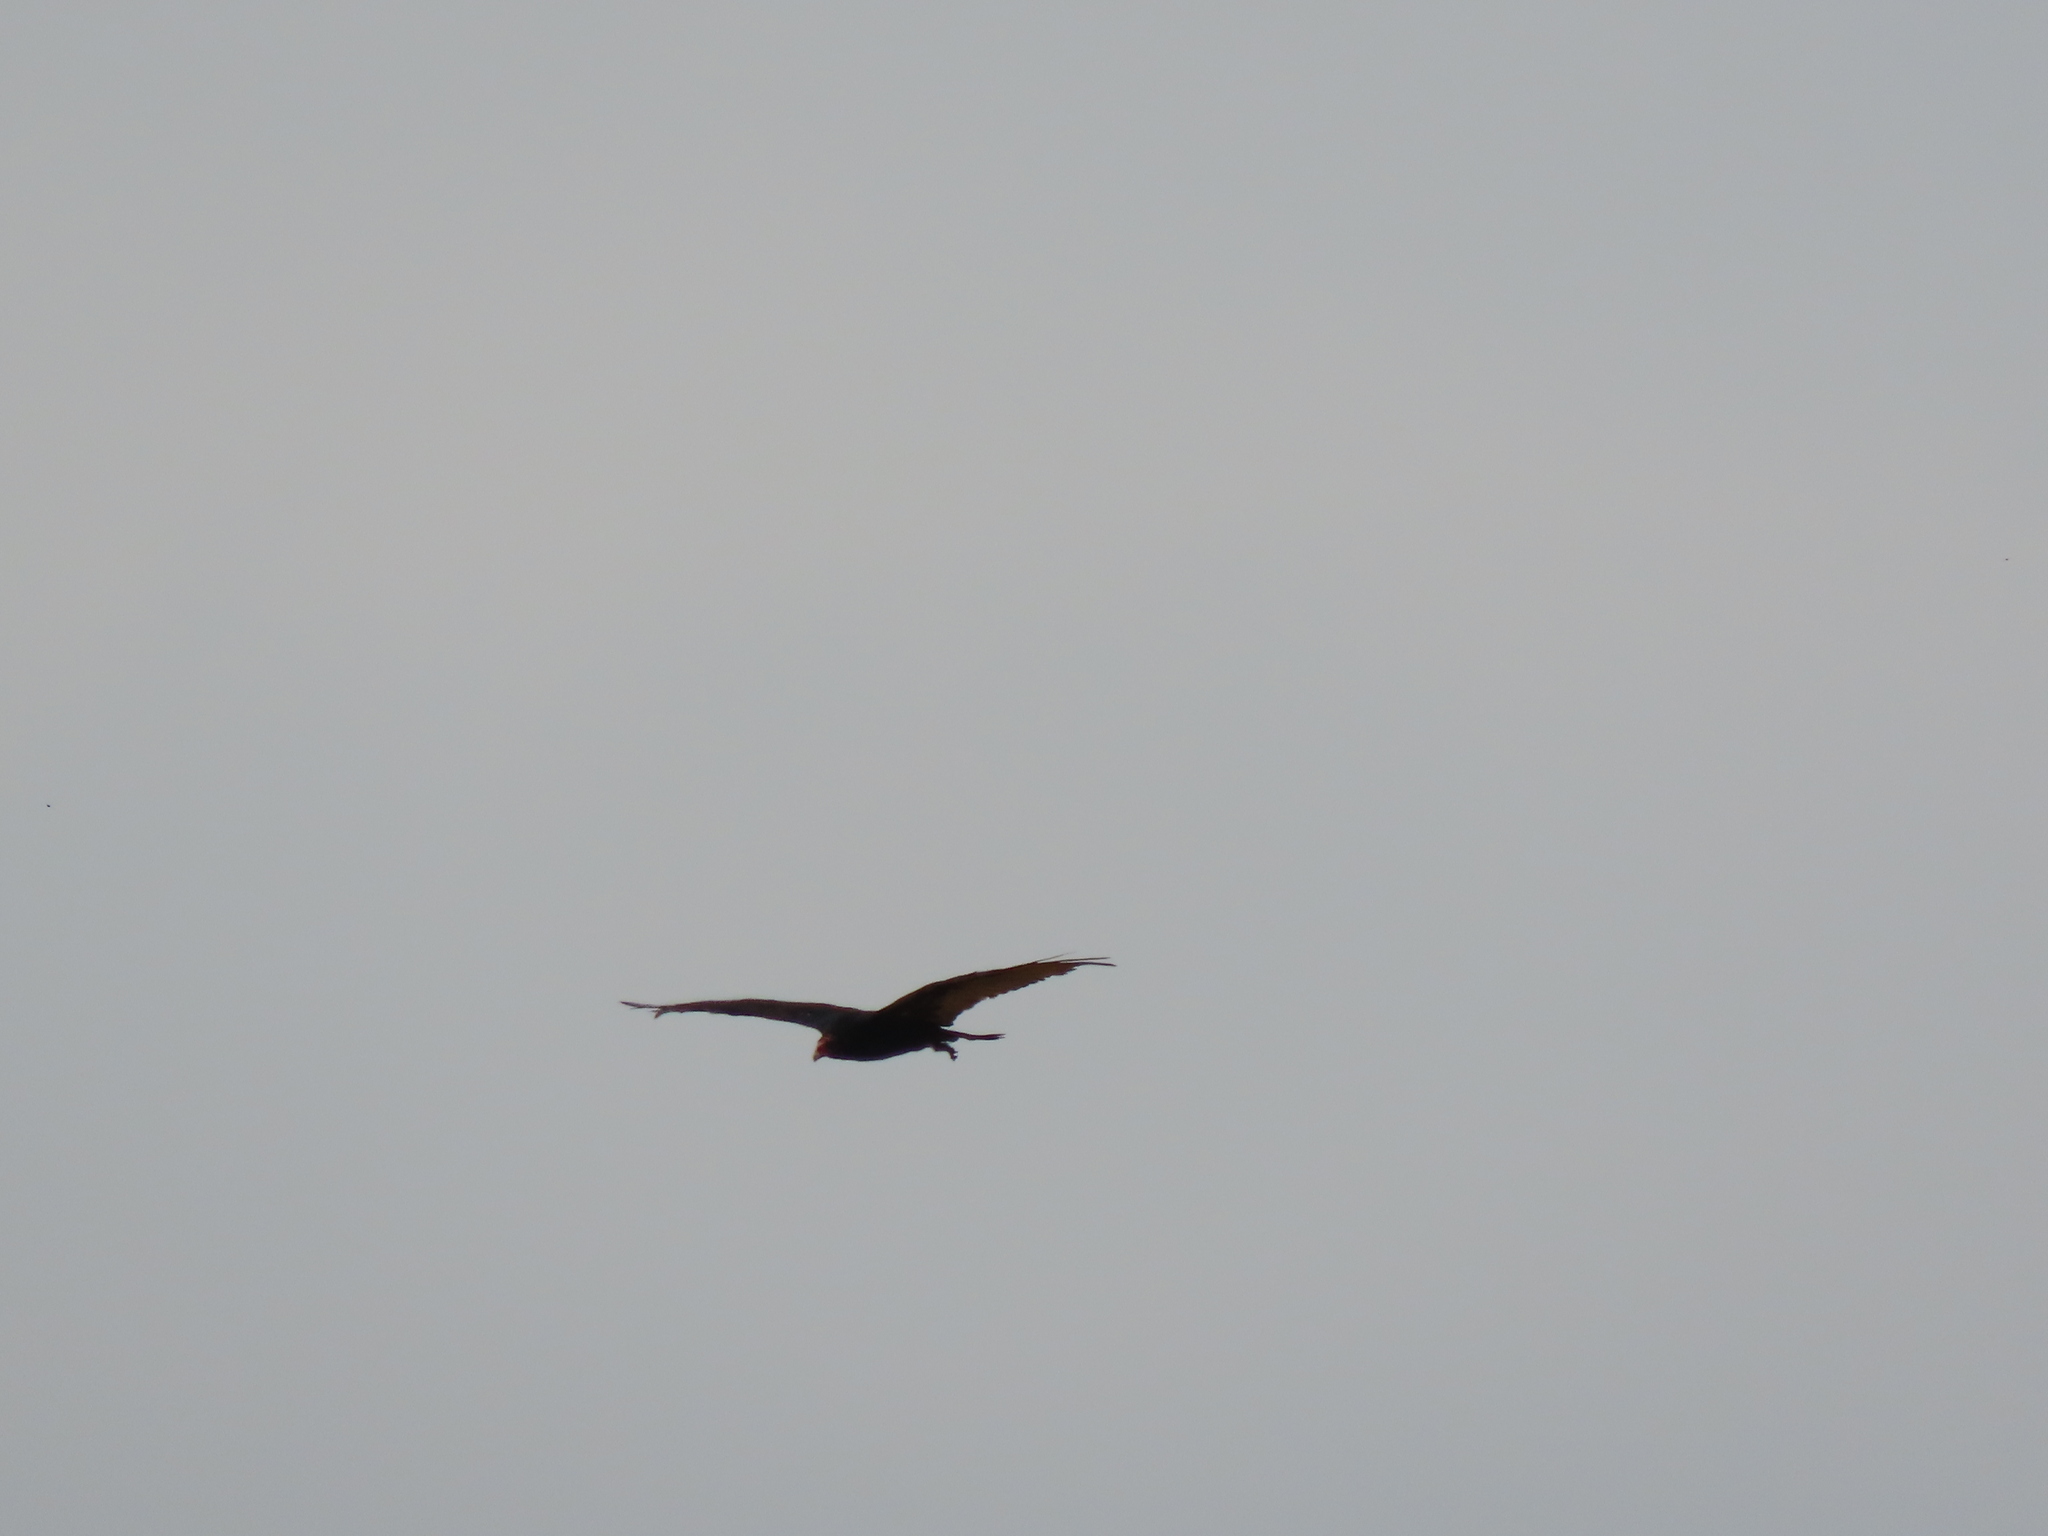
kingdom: Animalia
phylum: Chordata
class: Aves
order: Accipitriformes
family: Cathartidae
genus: Cathartes
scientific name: Cathartes aura
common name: Turkey vulture
